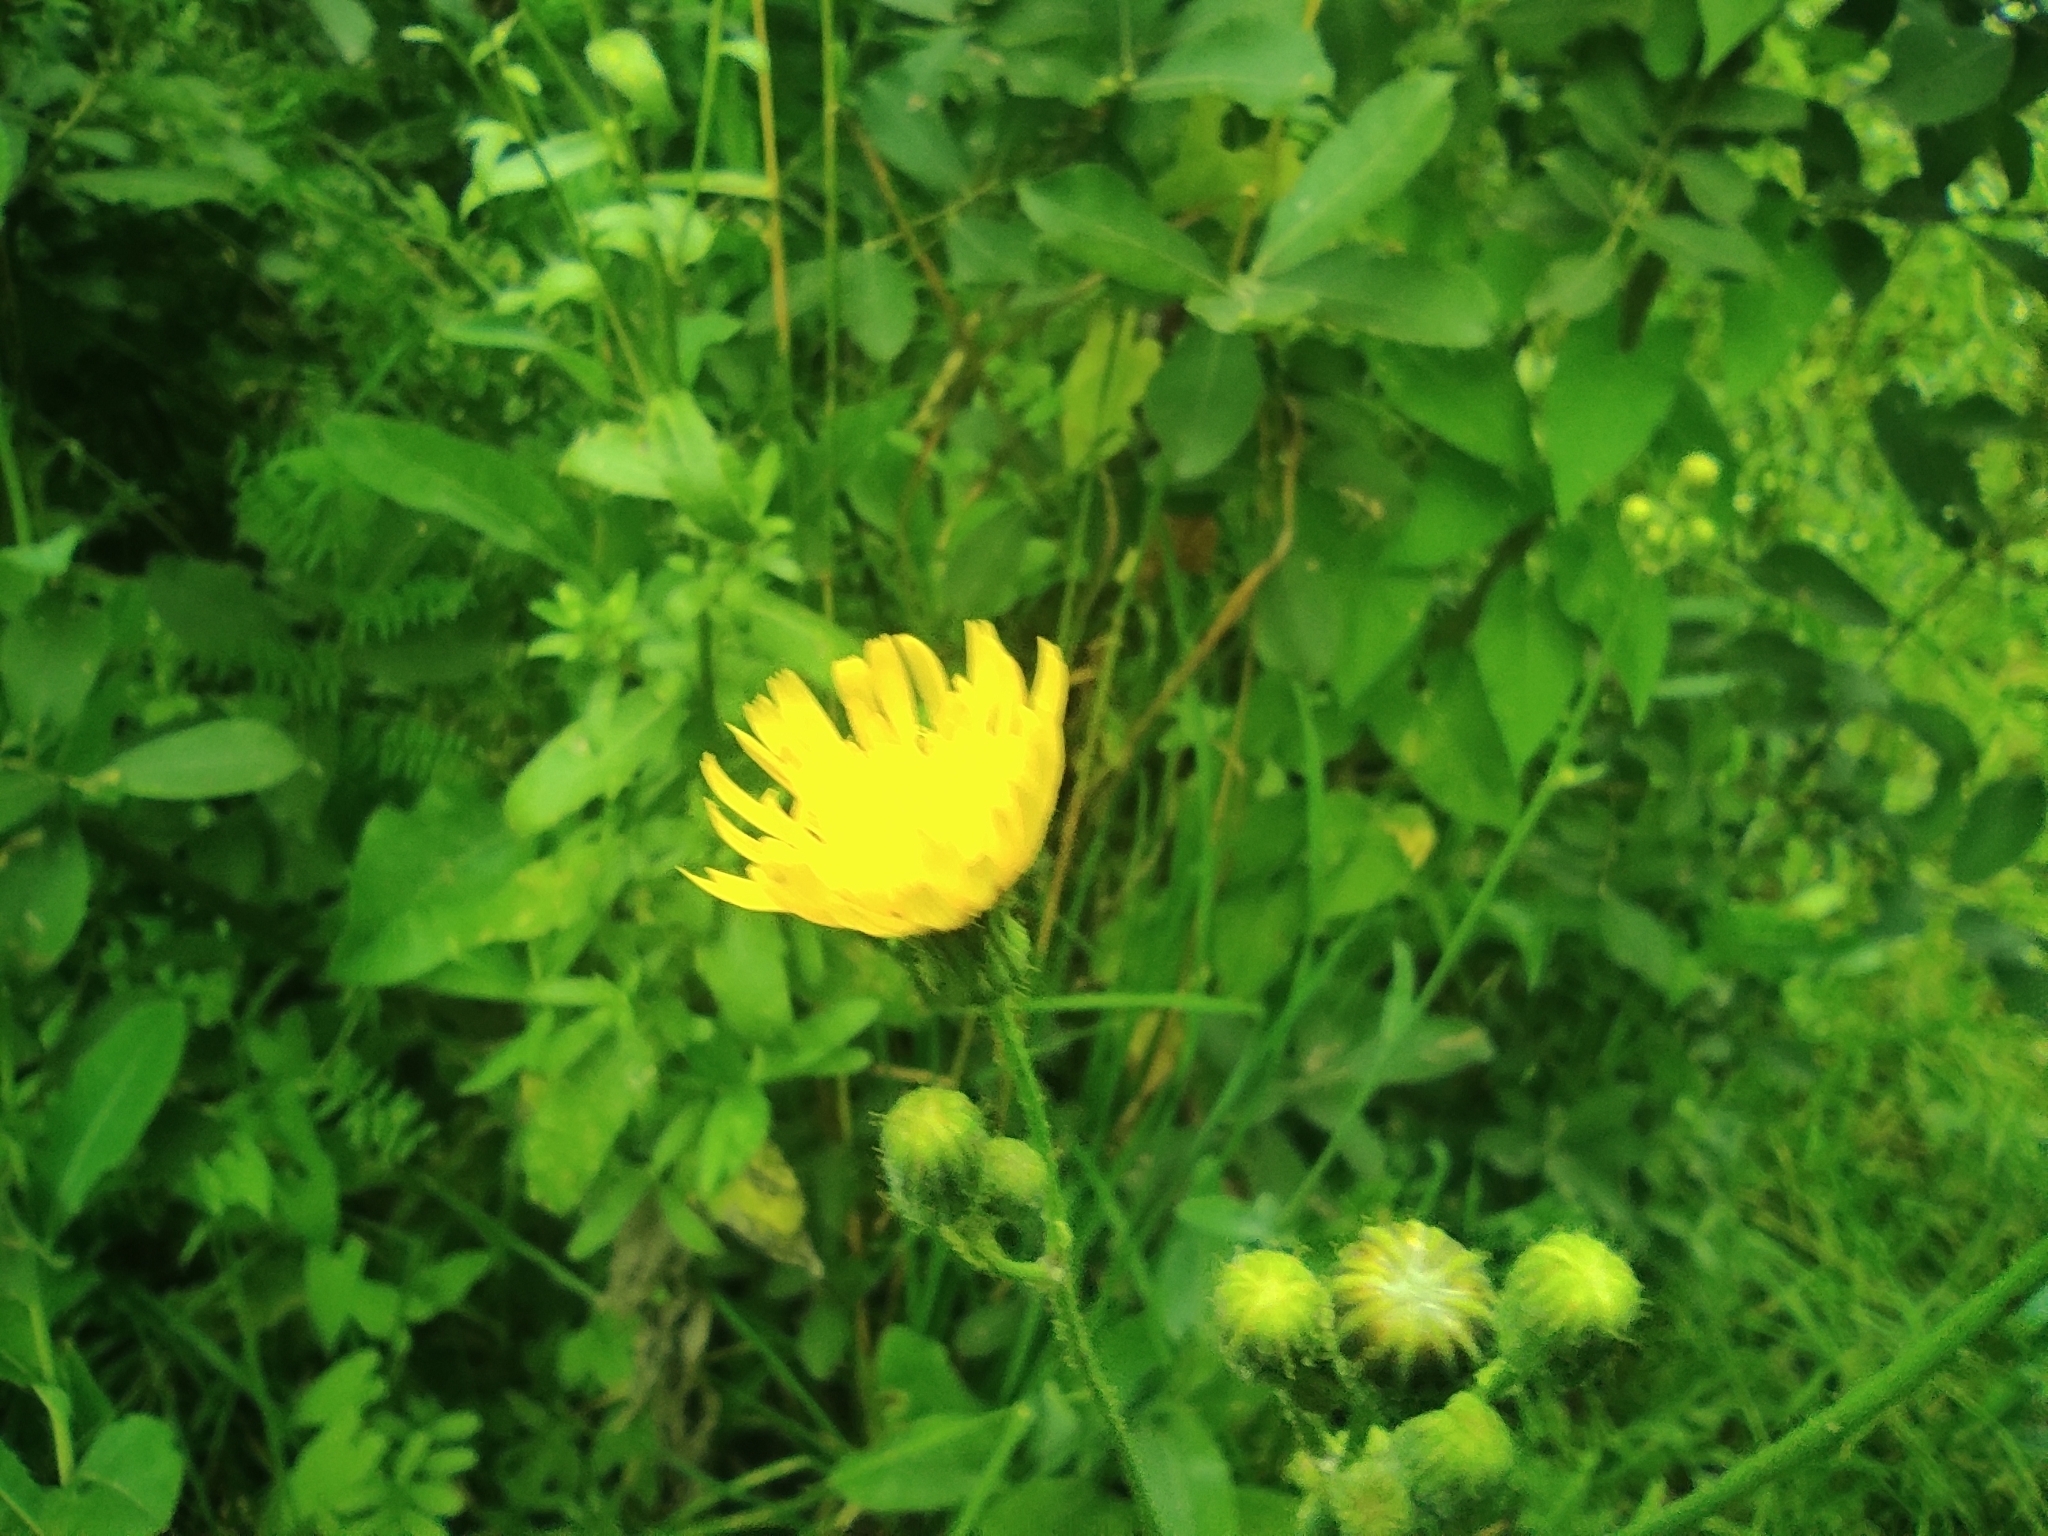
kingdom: Plantae
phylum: Tracheophyta
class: Magnoliopsida
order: Asterales
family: Asteraceae
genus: Sonchus
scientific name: Sonchus arvensis
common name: Perennial sow-thistle
